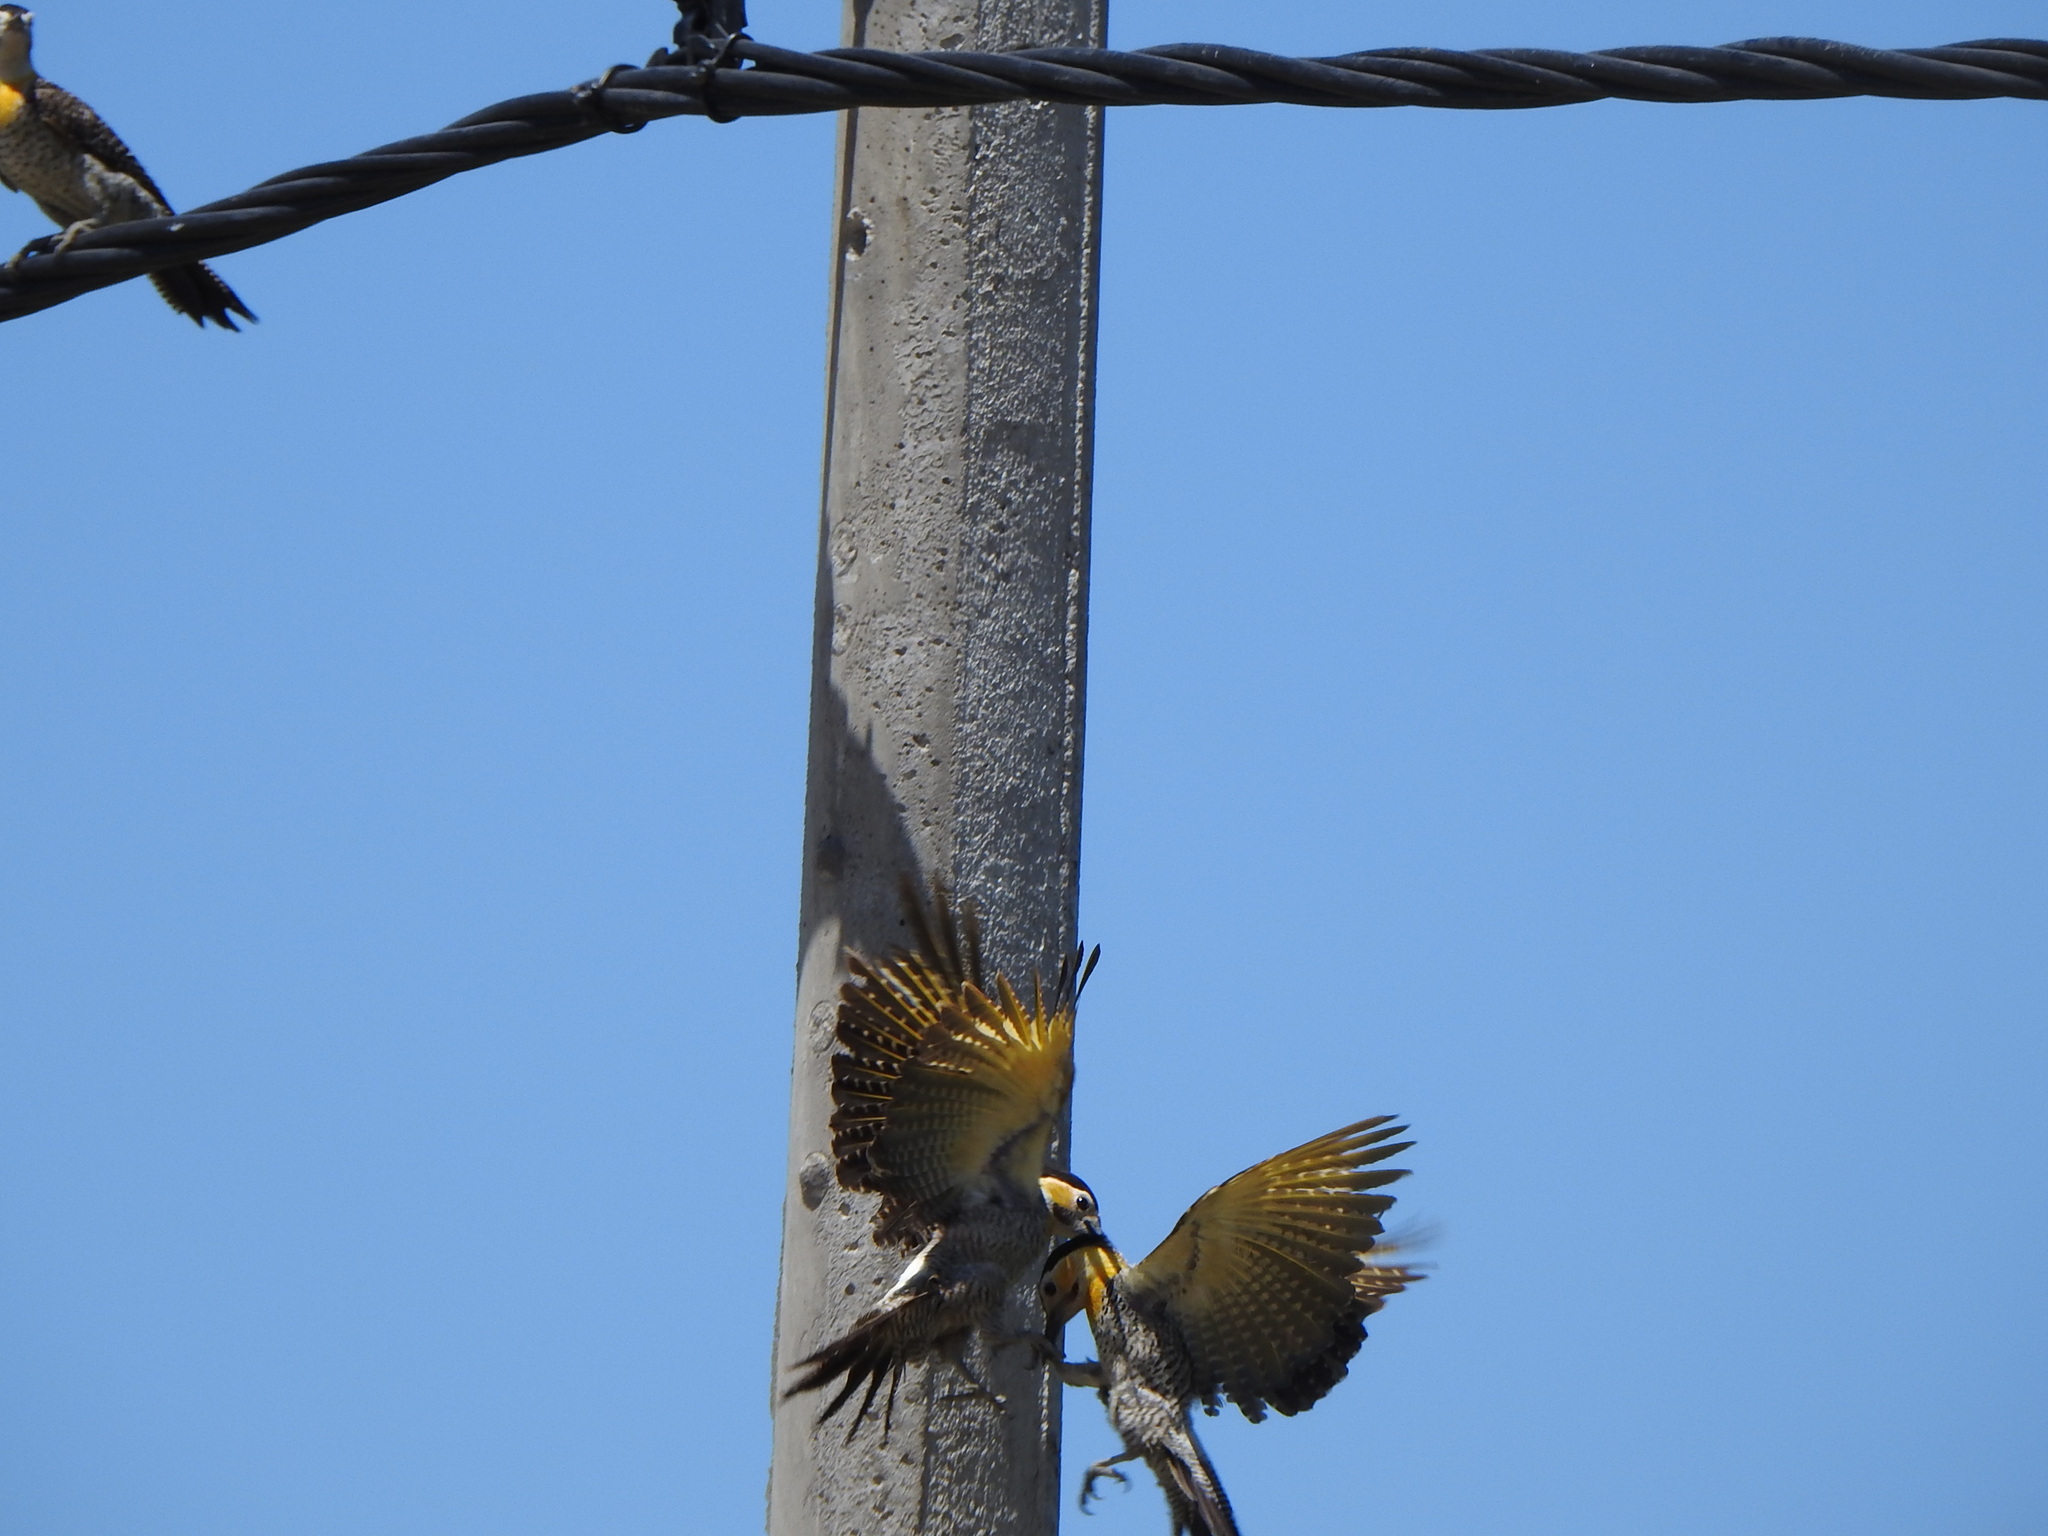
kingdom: Animalia
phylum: Chordata
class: Aves
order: Piciformes
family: Picidae
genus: Colaptes
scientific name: Colaptes campestris
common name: Campo flicker
